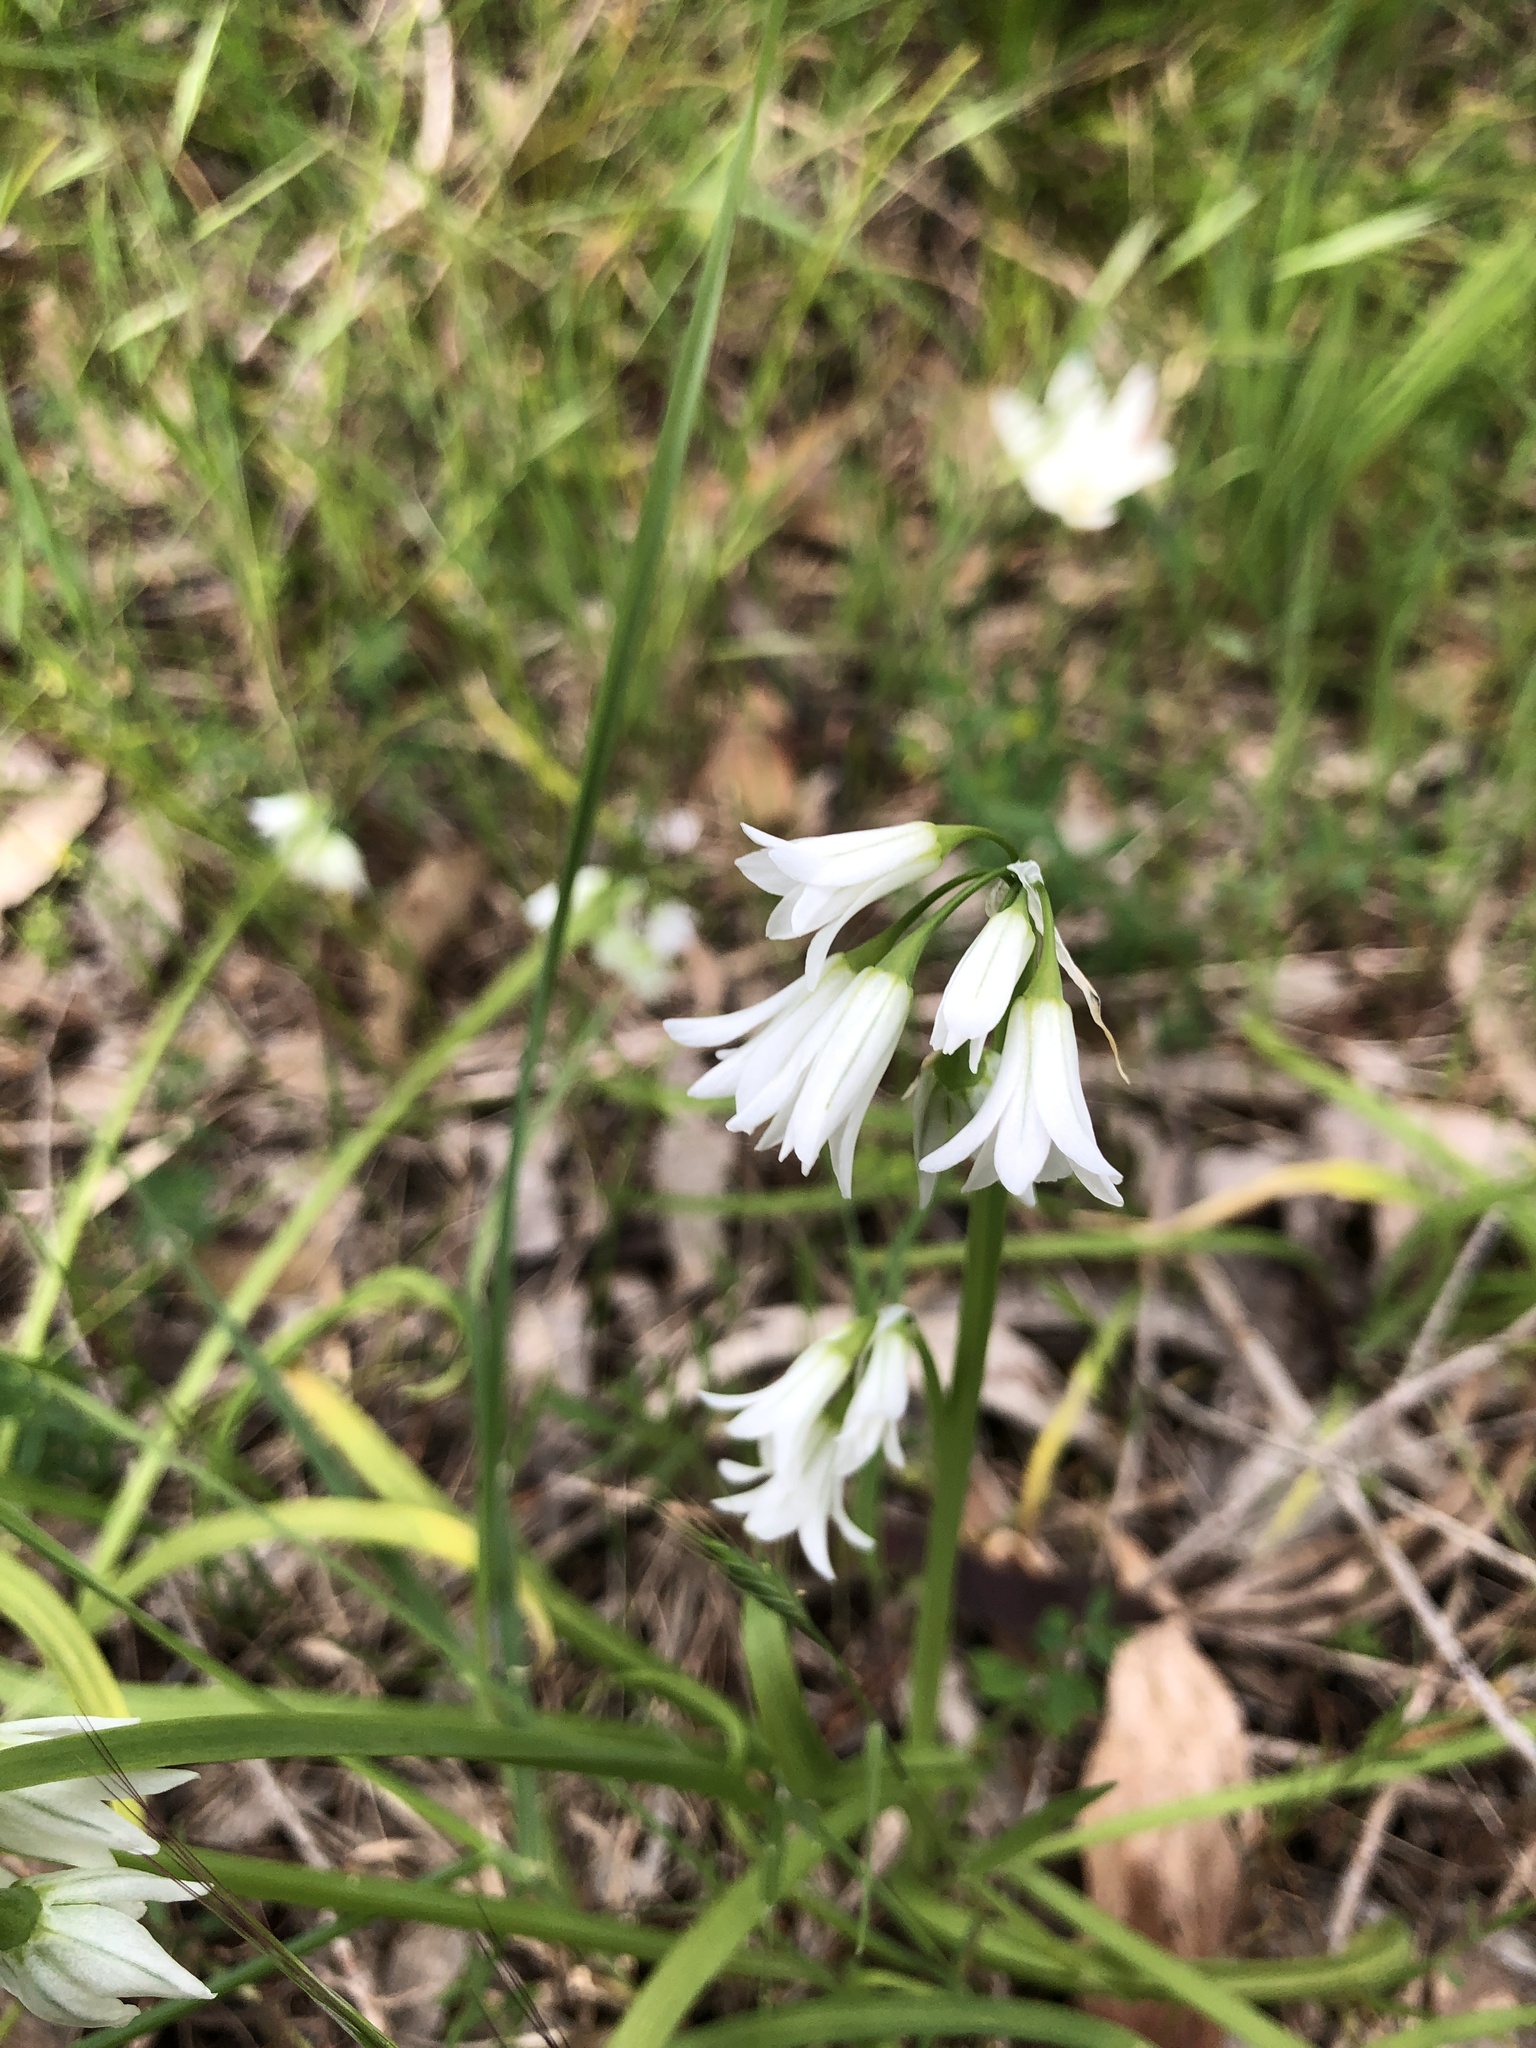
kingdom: Plantae
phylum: Tracheophyta
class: Liliopsida
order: Asparagales
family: Amaryllidaceae
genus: Allium
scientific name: Allium triquetrum
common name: Three-cornered garlic
